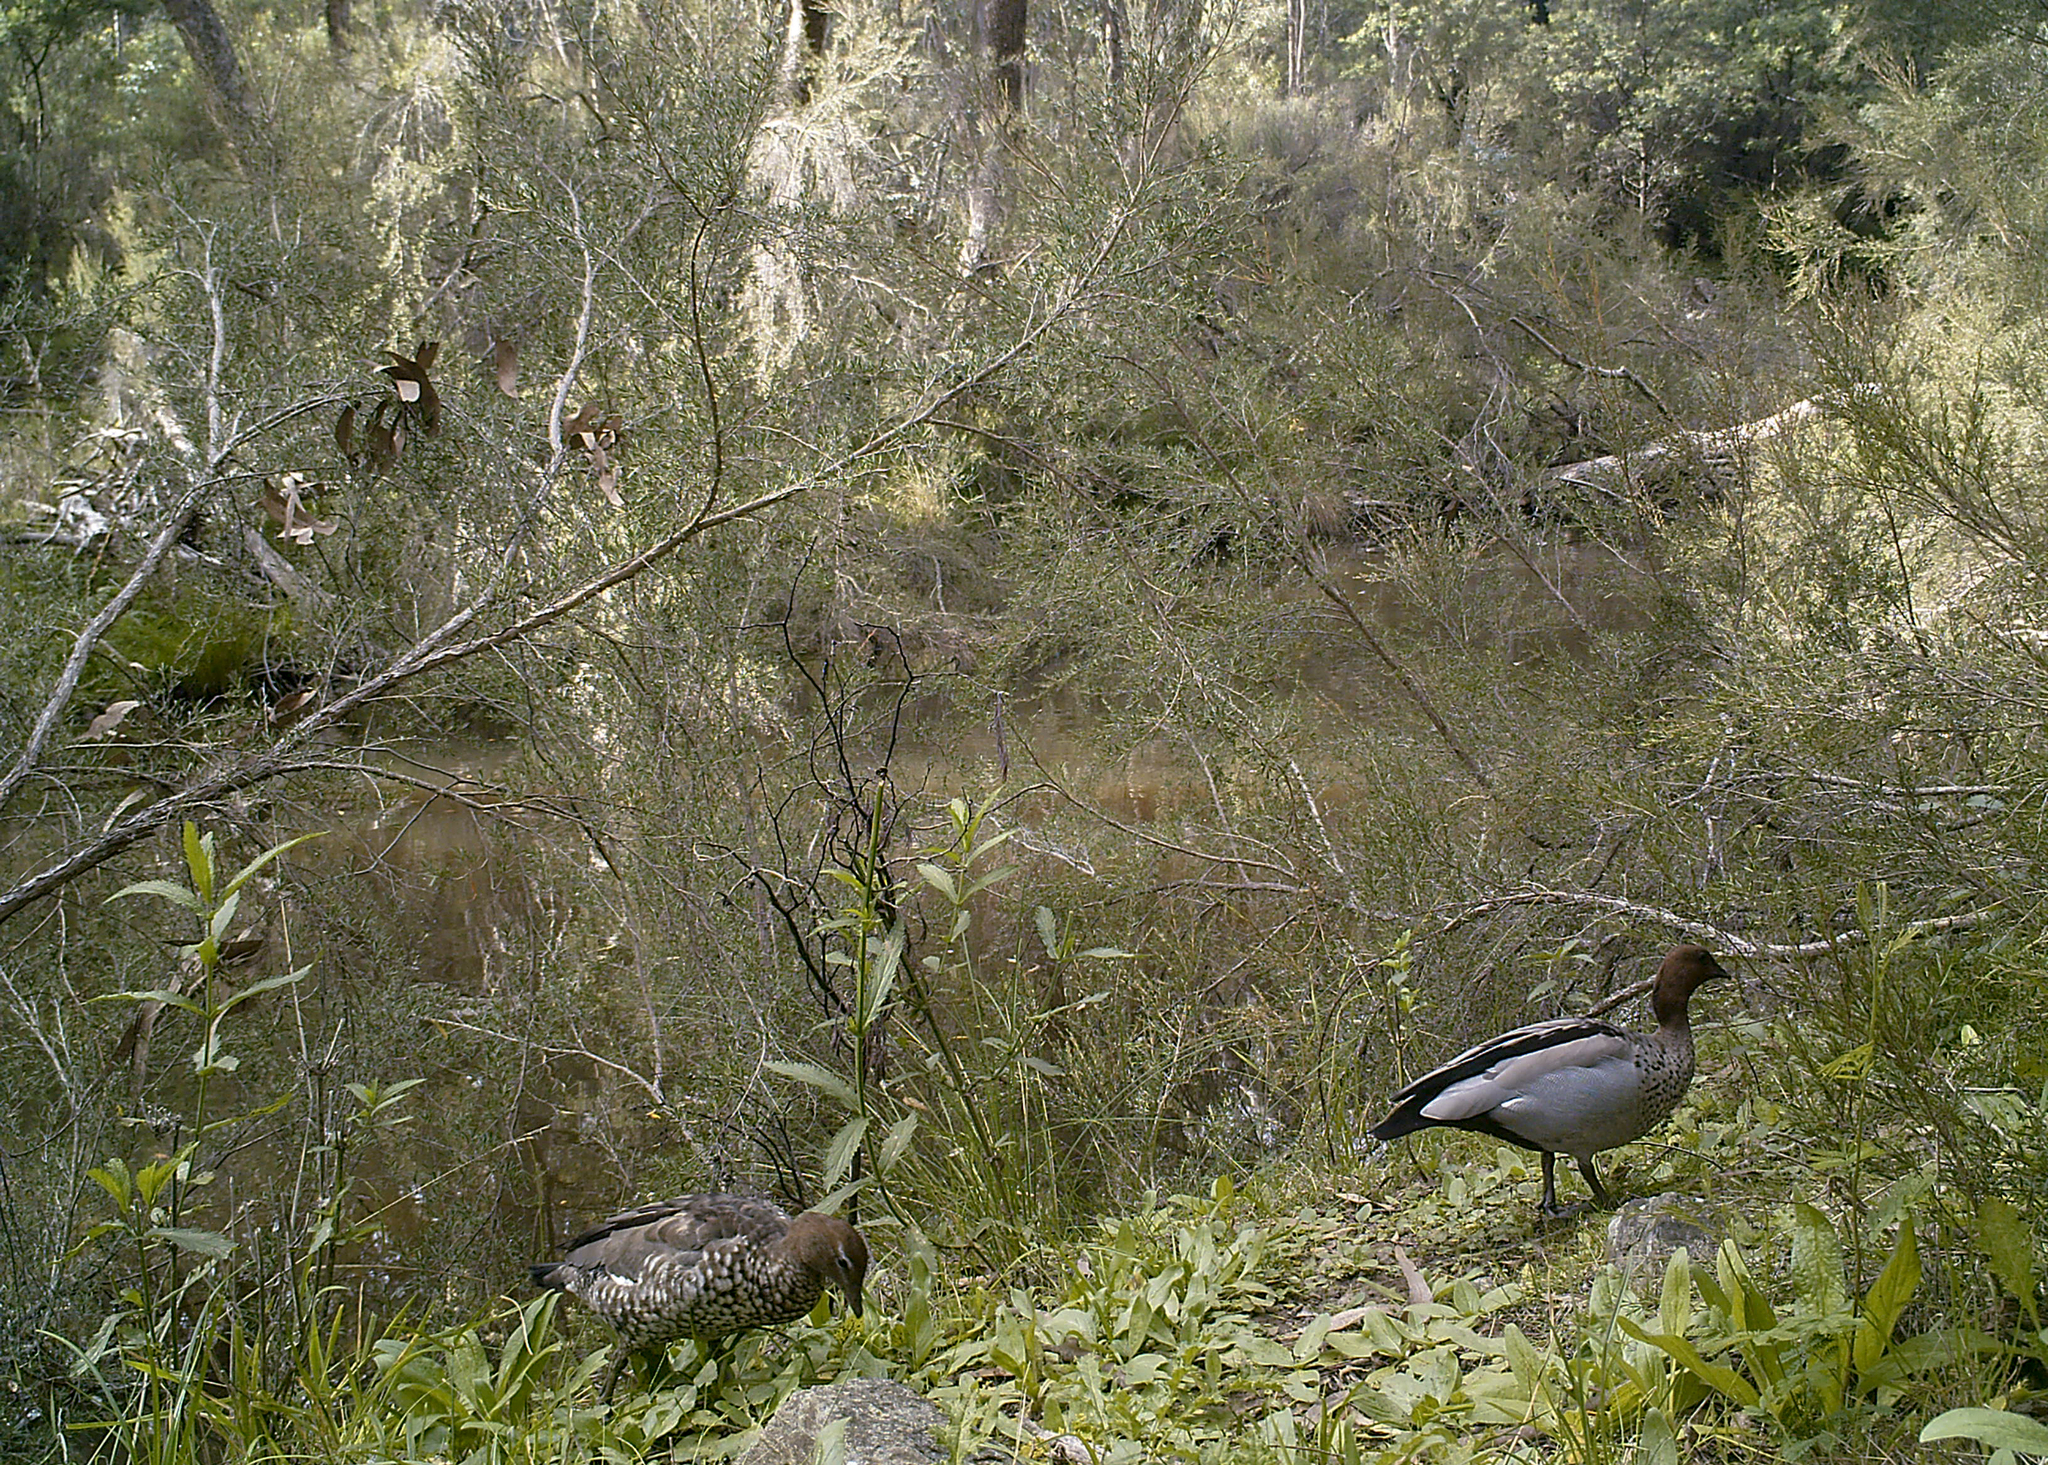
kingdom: Animalia
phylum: Chordata
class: Aves
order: Anseriformes
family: Anatidae
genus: Chenonetta
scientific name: Chenonetta jubata
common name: Maned duck
